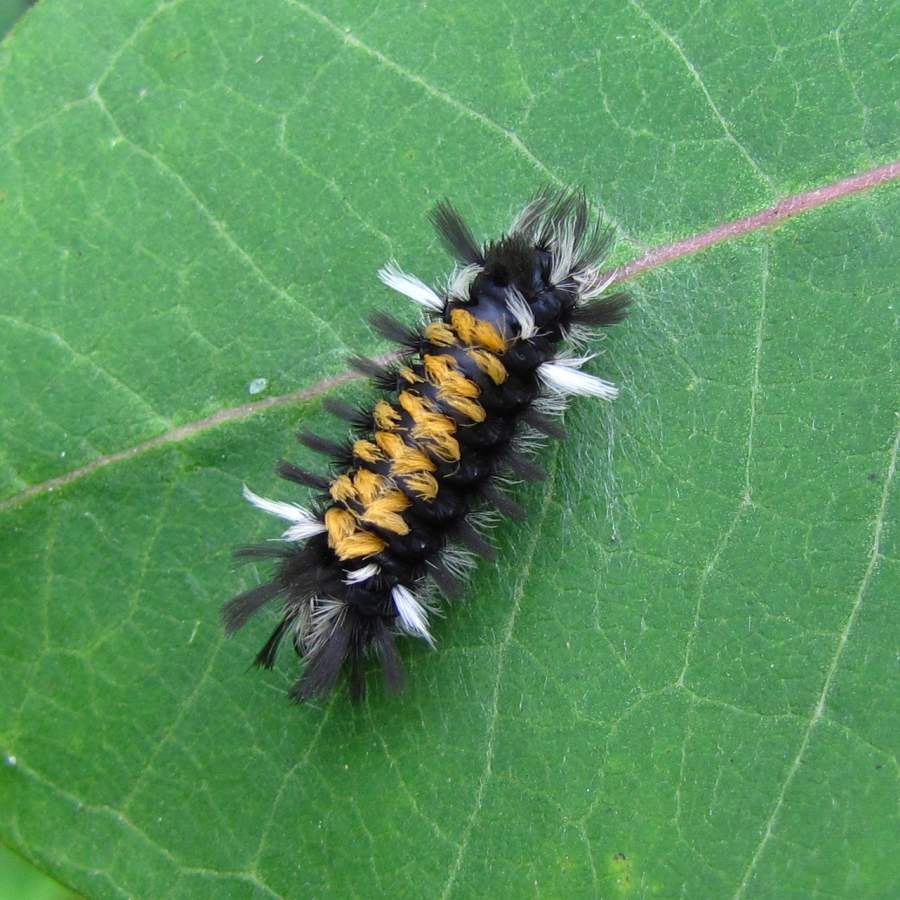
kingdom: Animalia
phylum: Arthropoda
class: Insecta
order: Lepidoptera
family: Erebidae
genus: Euchaetes
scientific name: Euchaetes egle
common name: Milkweed tussock moth
